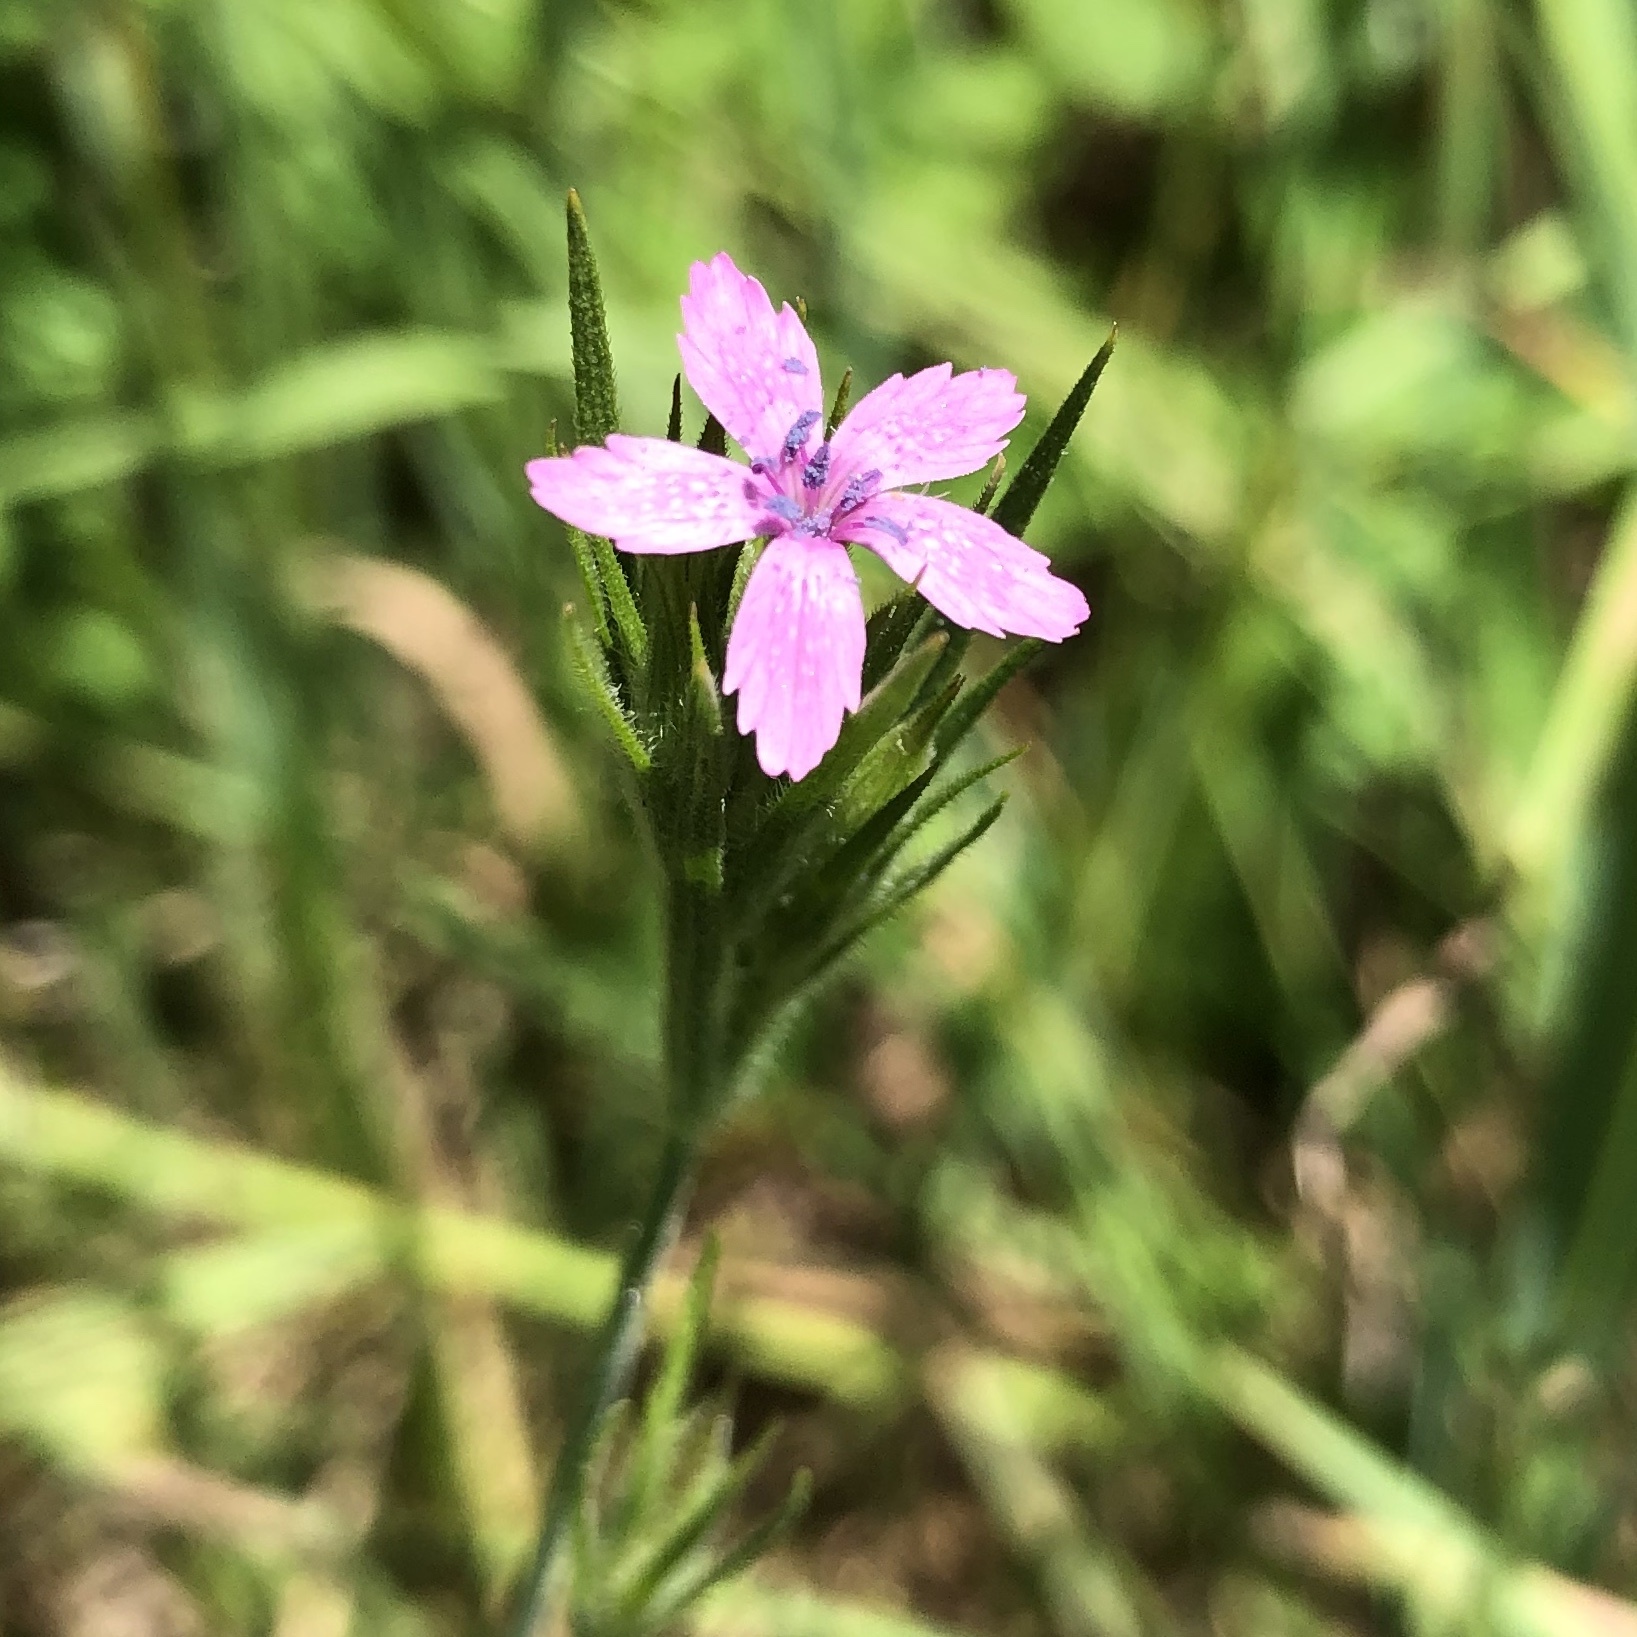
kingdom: Plantae
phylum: Tracheophyta
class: Magnoliopsida
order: Caryophyllales
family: Caryophyllaceae
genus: Dianthus
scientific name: Dianthus armeria
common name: Deptford pink
